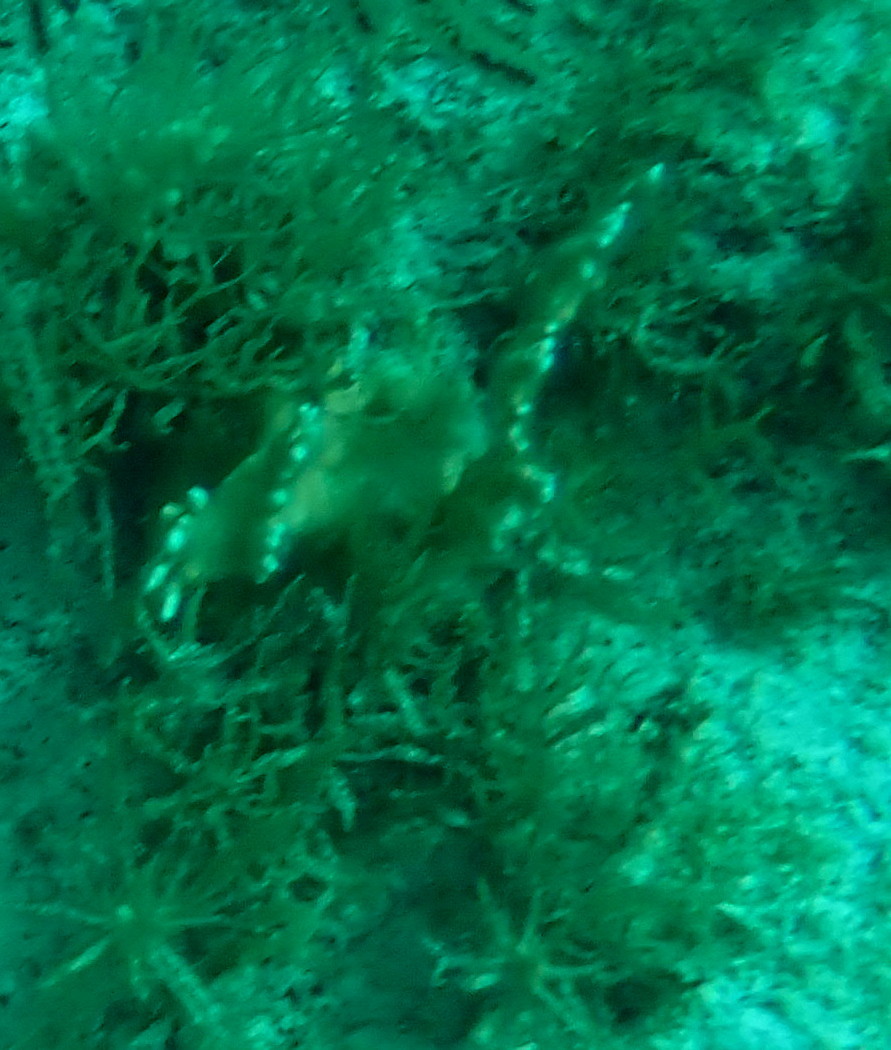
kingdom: Animalia
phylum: Cnidaria
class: Hydrozoa
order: Anthoathecata
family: Milleporidae
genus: Millepora
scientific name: Millepora alcicornis
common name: Branching fire coral
